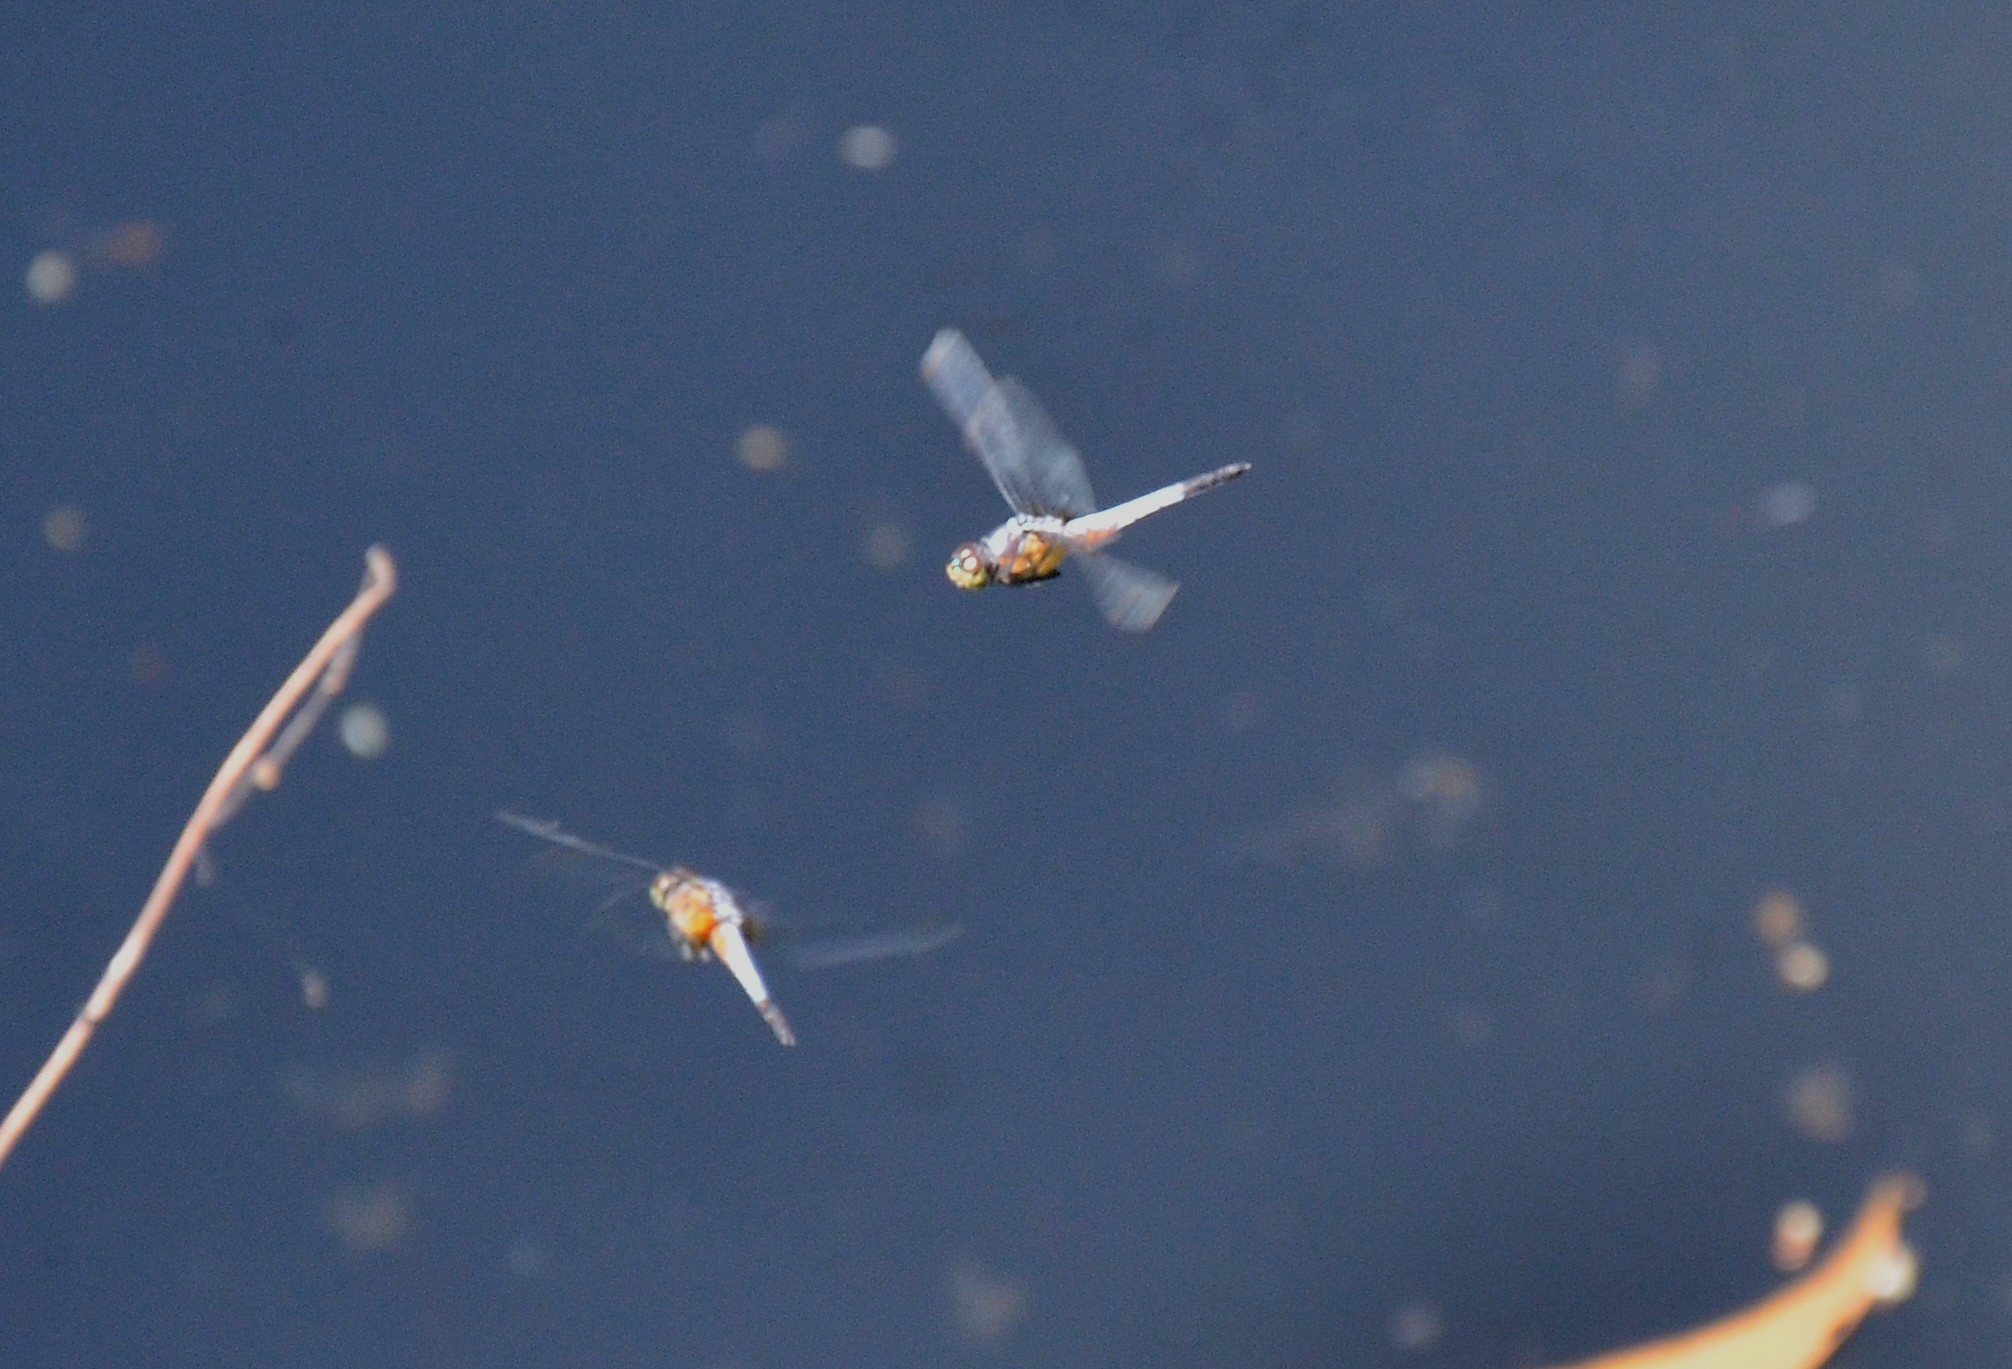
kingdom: Animalia
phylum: Arthropoda
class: Insecta
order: Odonata
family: Libellulidae
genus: Brachydiplax
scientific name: Brachydiplax chalybea
